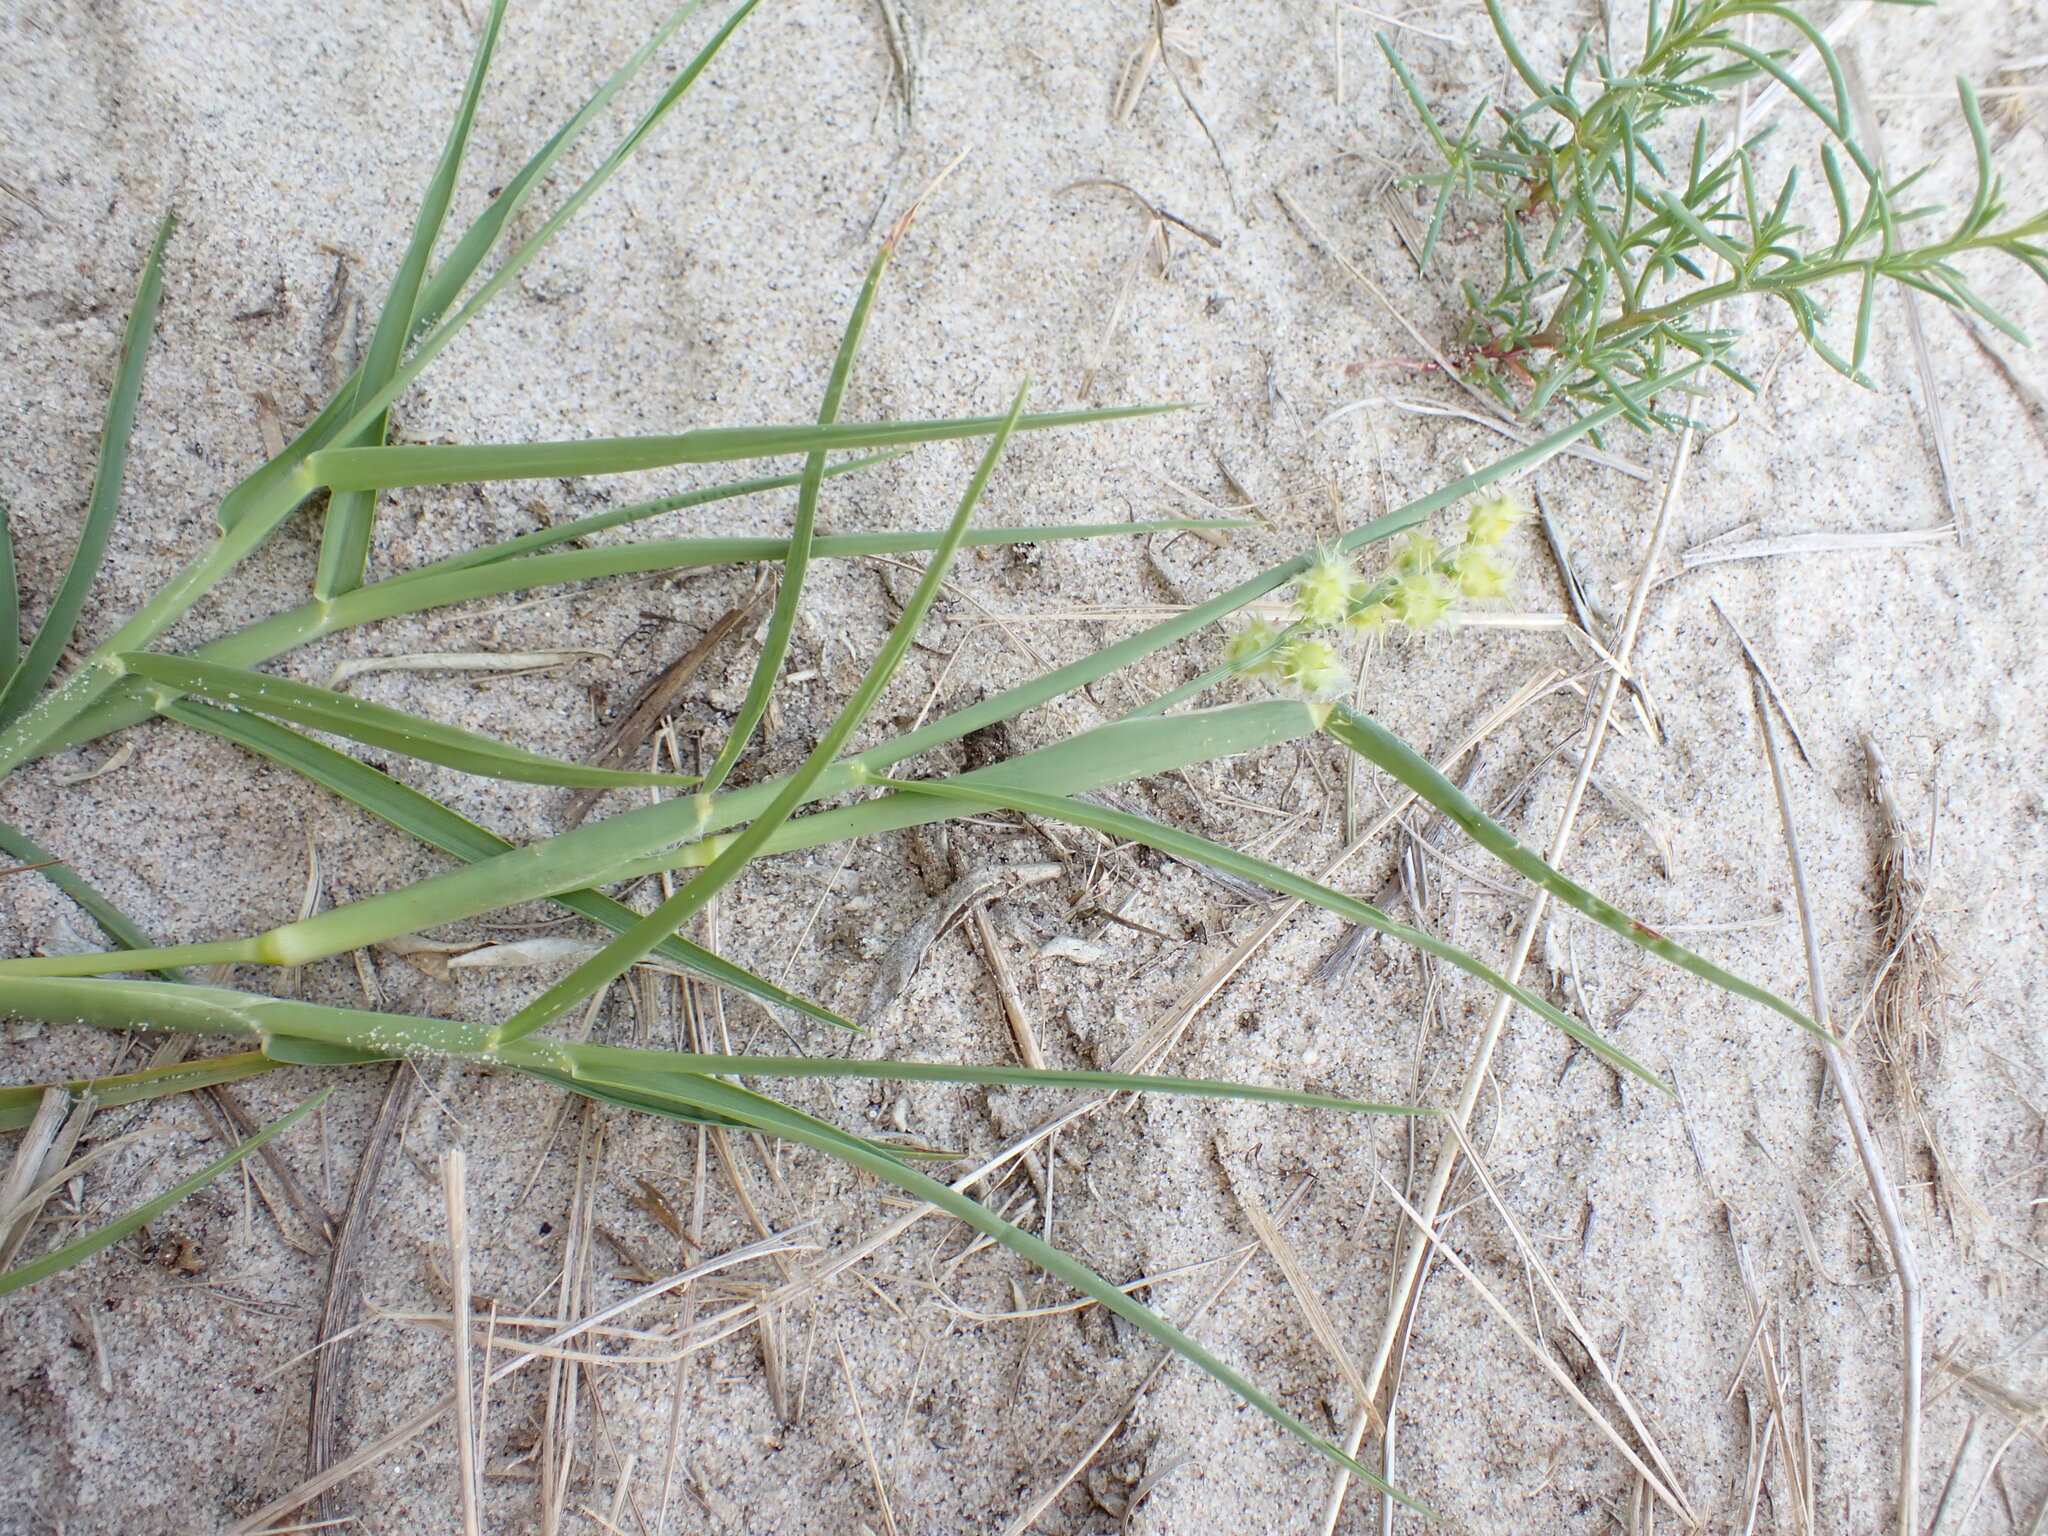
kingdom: Plantae
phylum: Tracheophyta
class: Liliopsida
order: Poales
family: Poaceae
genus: Cenchrus
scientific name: Cenchrus tribuloides
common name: Dune sandbur
